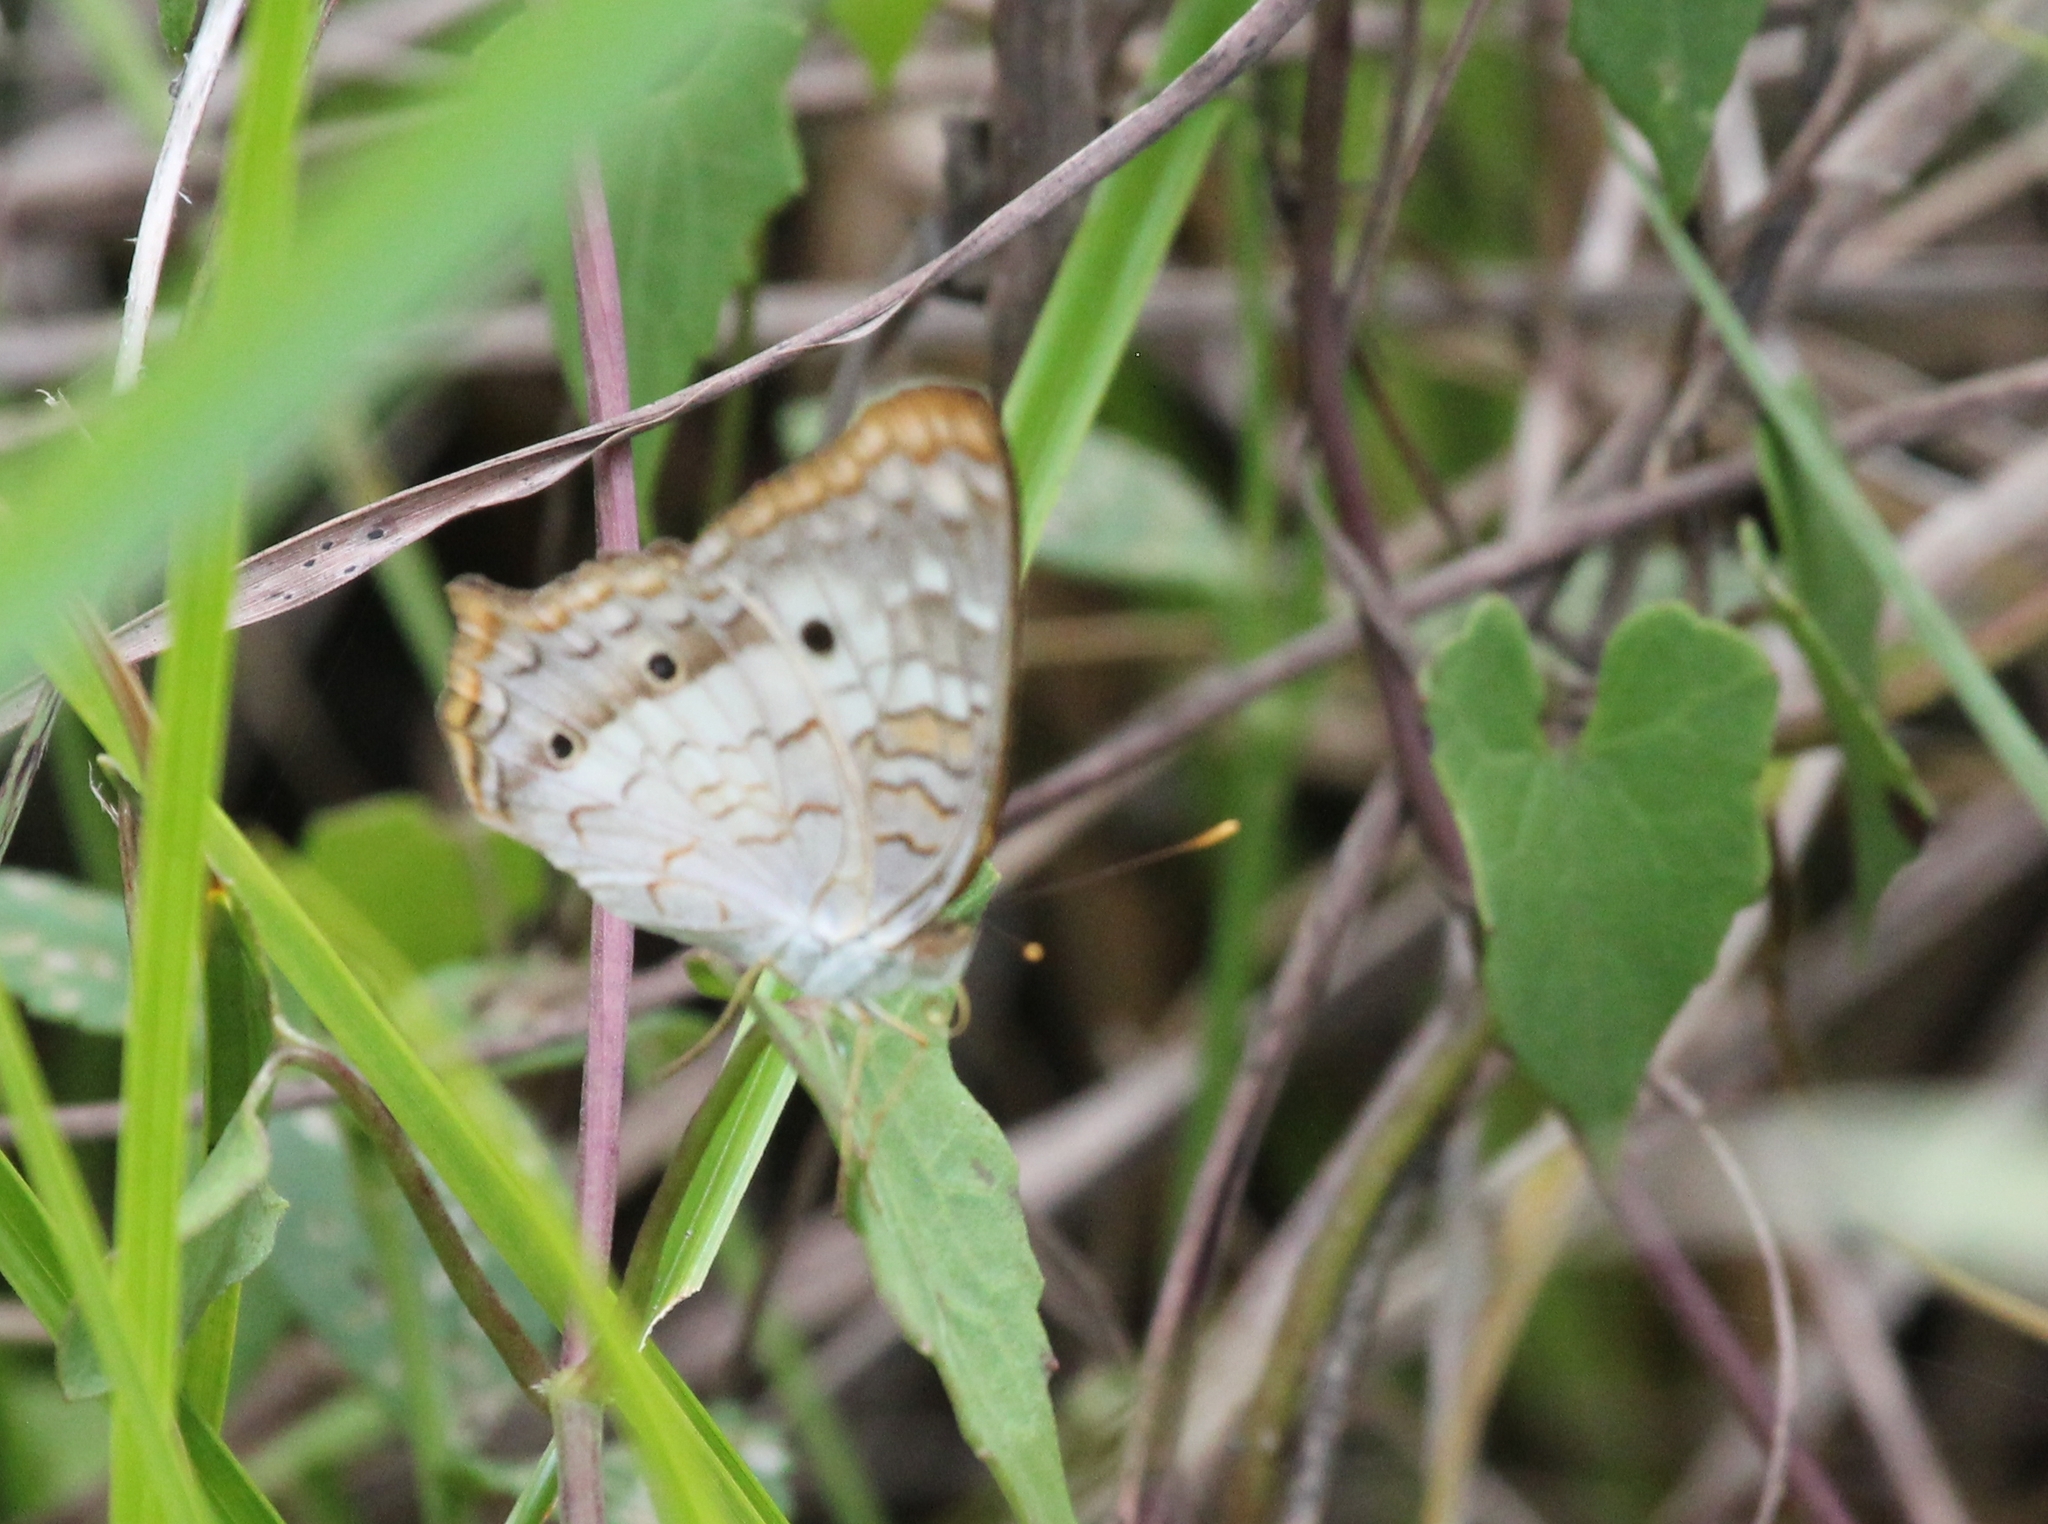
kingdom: Animalia
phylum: Arthropoda
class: Insecta
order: Lepidoptera
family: Nymphalidae
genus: Anartia
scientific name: Anartia jatrophae
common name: White peacock
